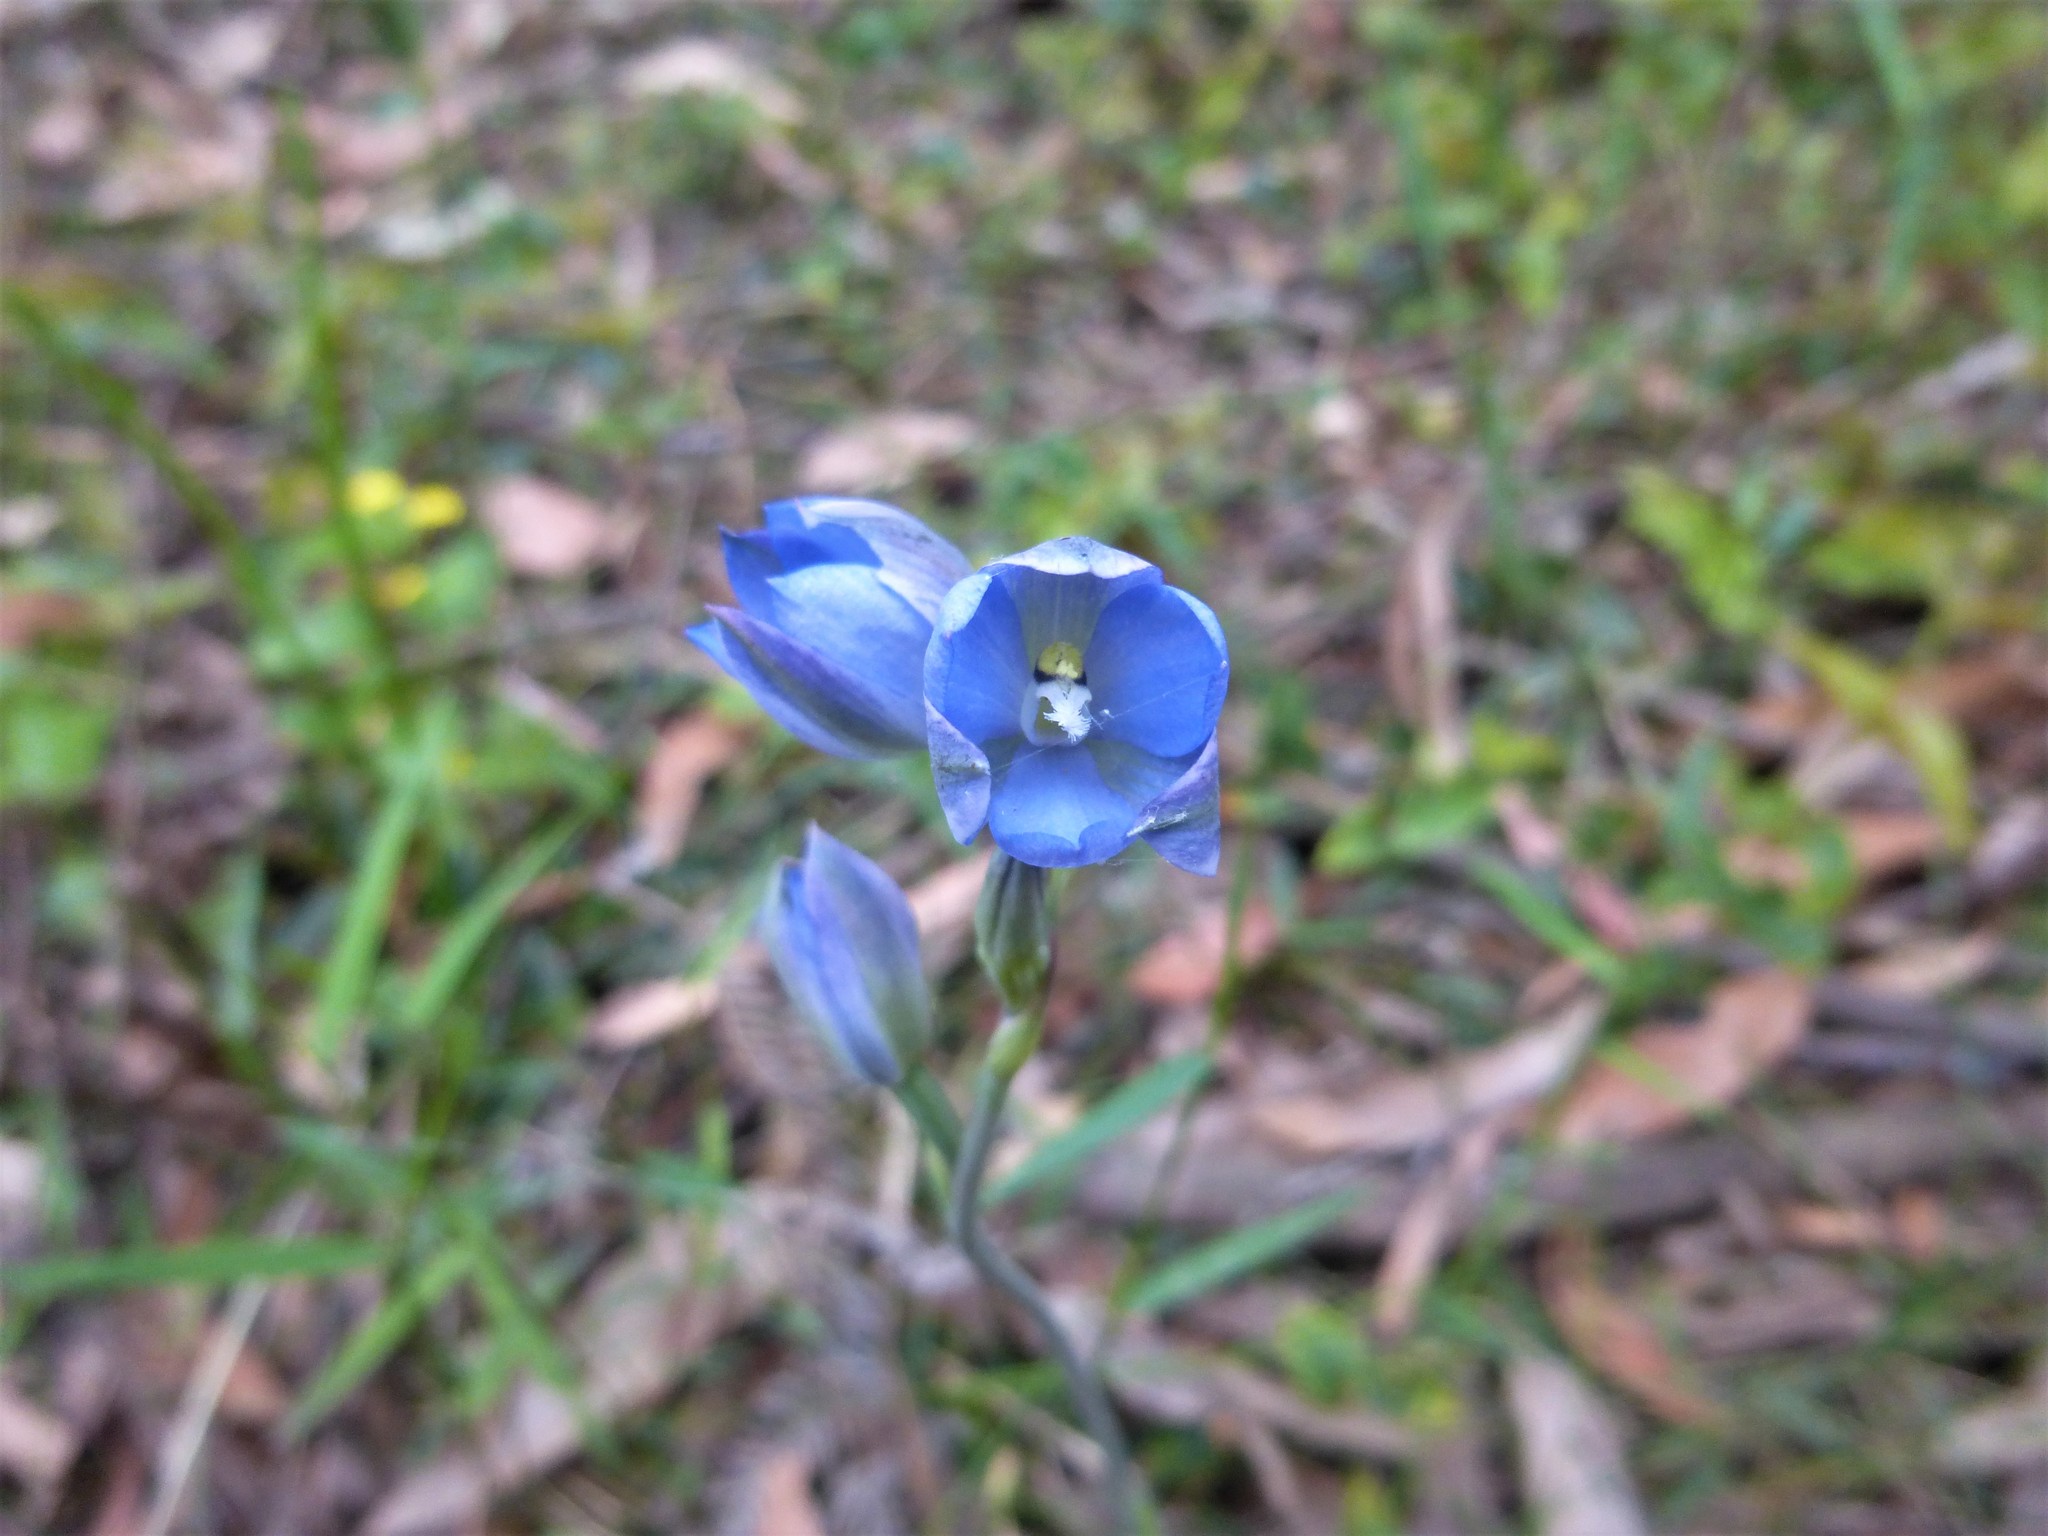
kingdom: Plantae
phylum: Tracheophyta
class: Liliopsida
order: Asparagales
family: Orchidaceae
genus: Thelymitra
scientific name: Thelymitra media
